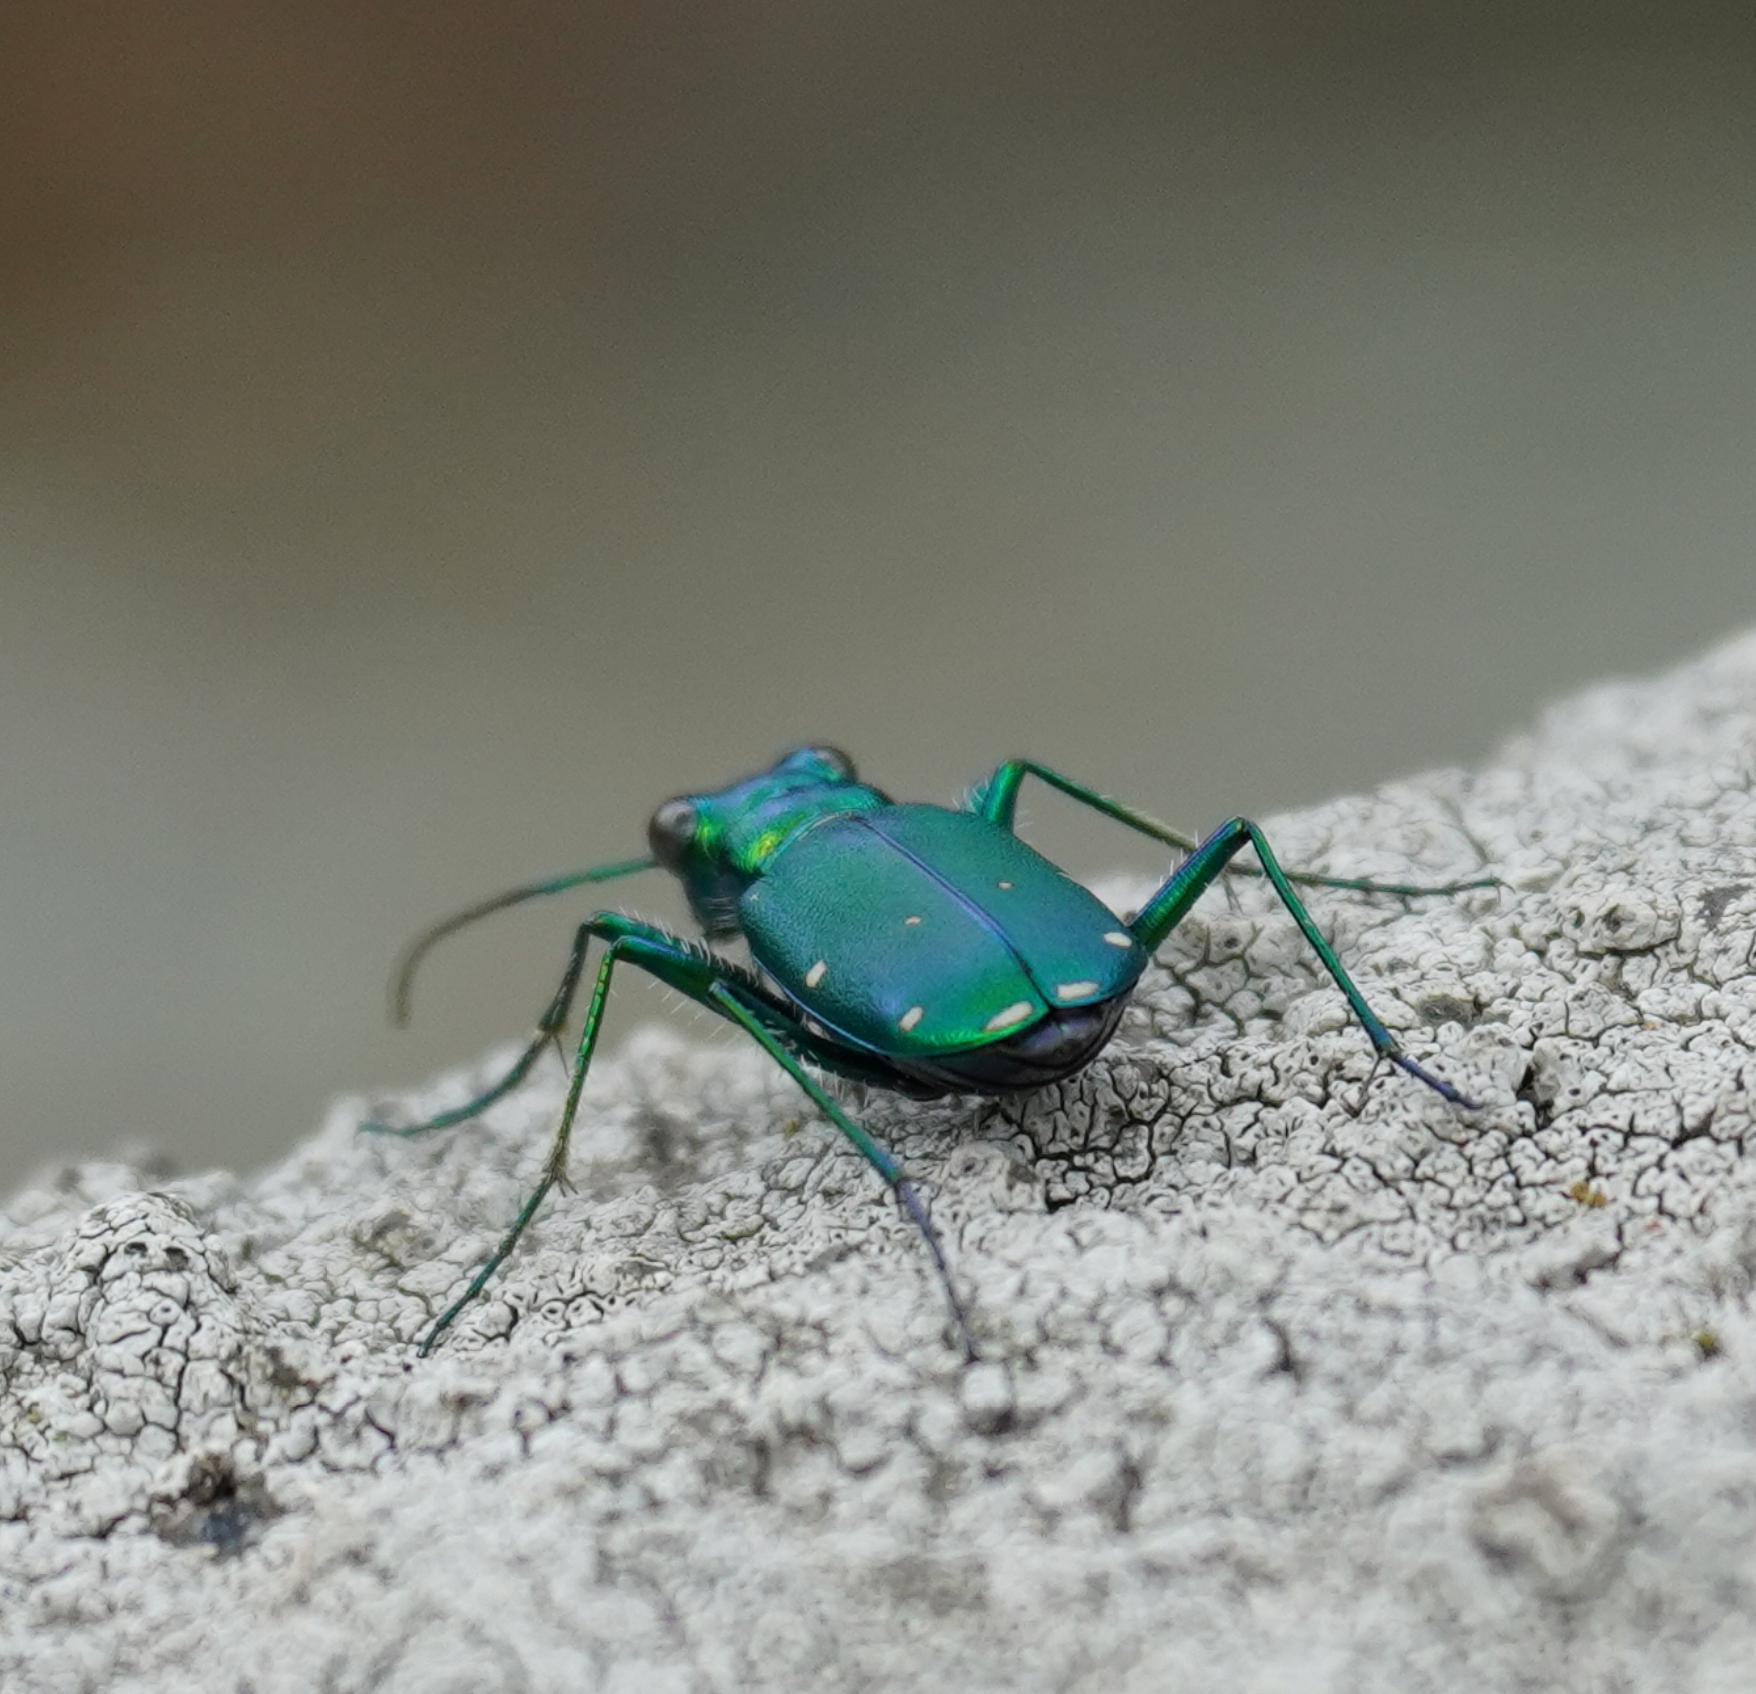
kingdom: Animalia
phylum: Arthropoda
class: Insecta
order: Coleoptera
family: Carabidae
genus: Cicindela
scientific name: Cicindela sexguttata
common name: Six-spotted tiger beetle
